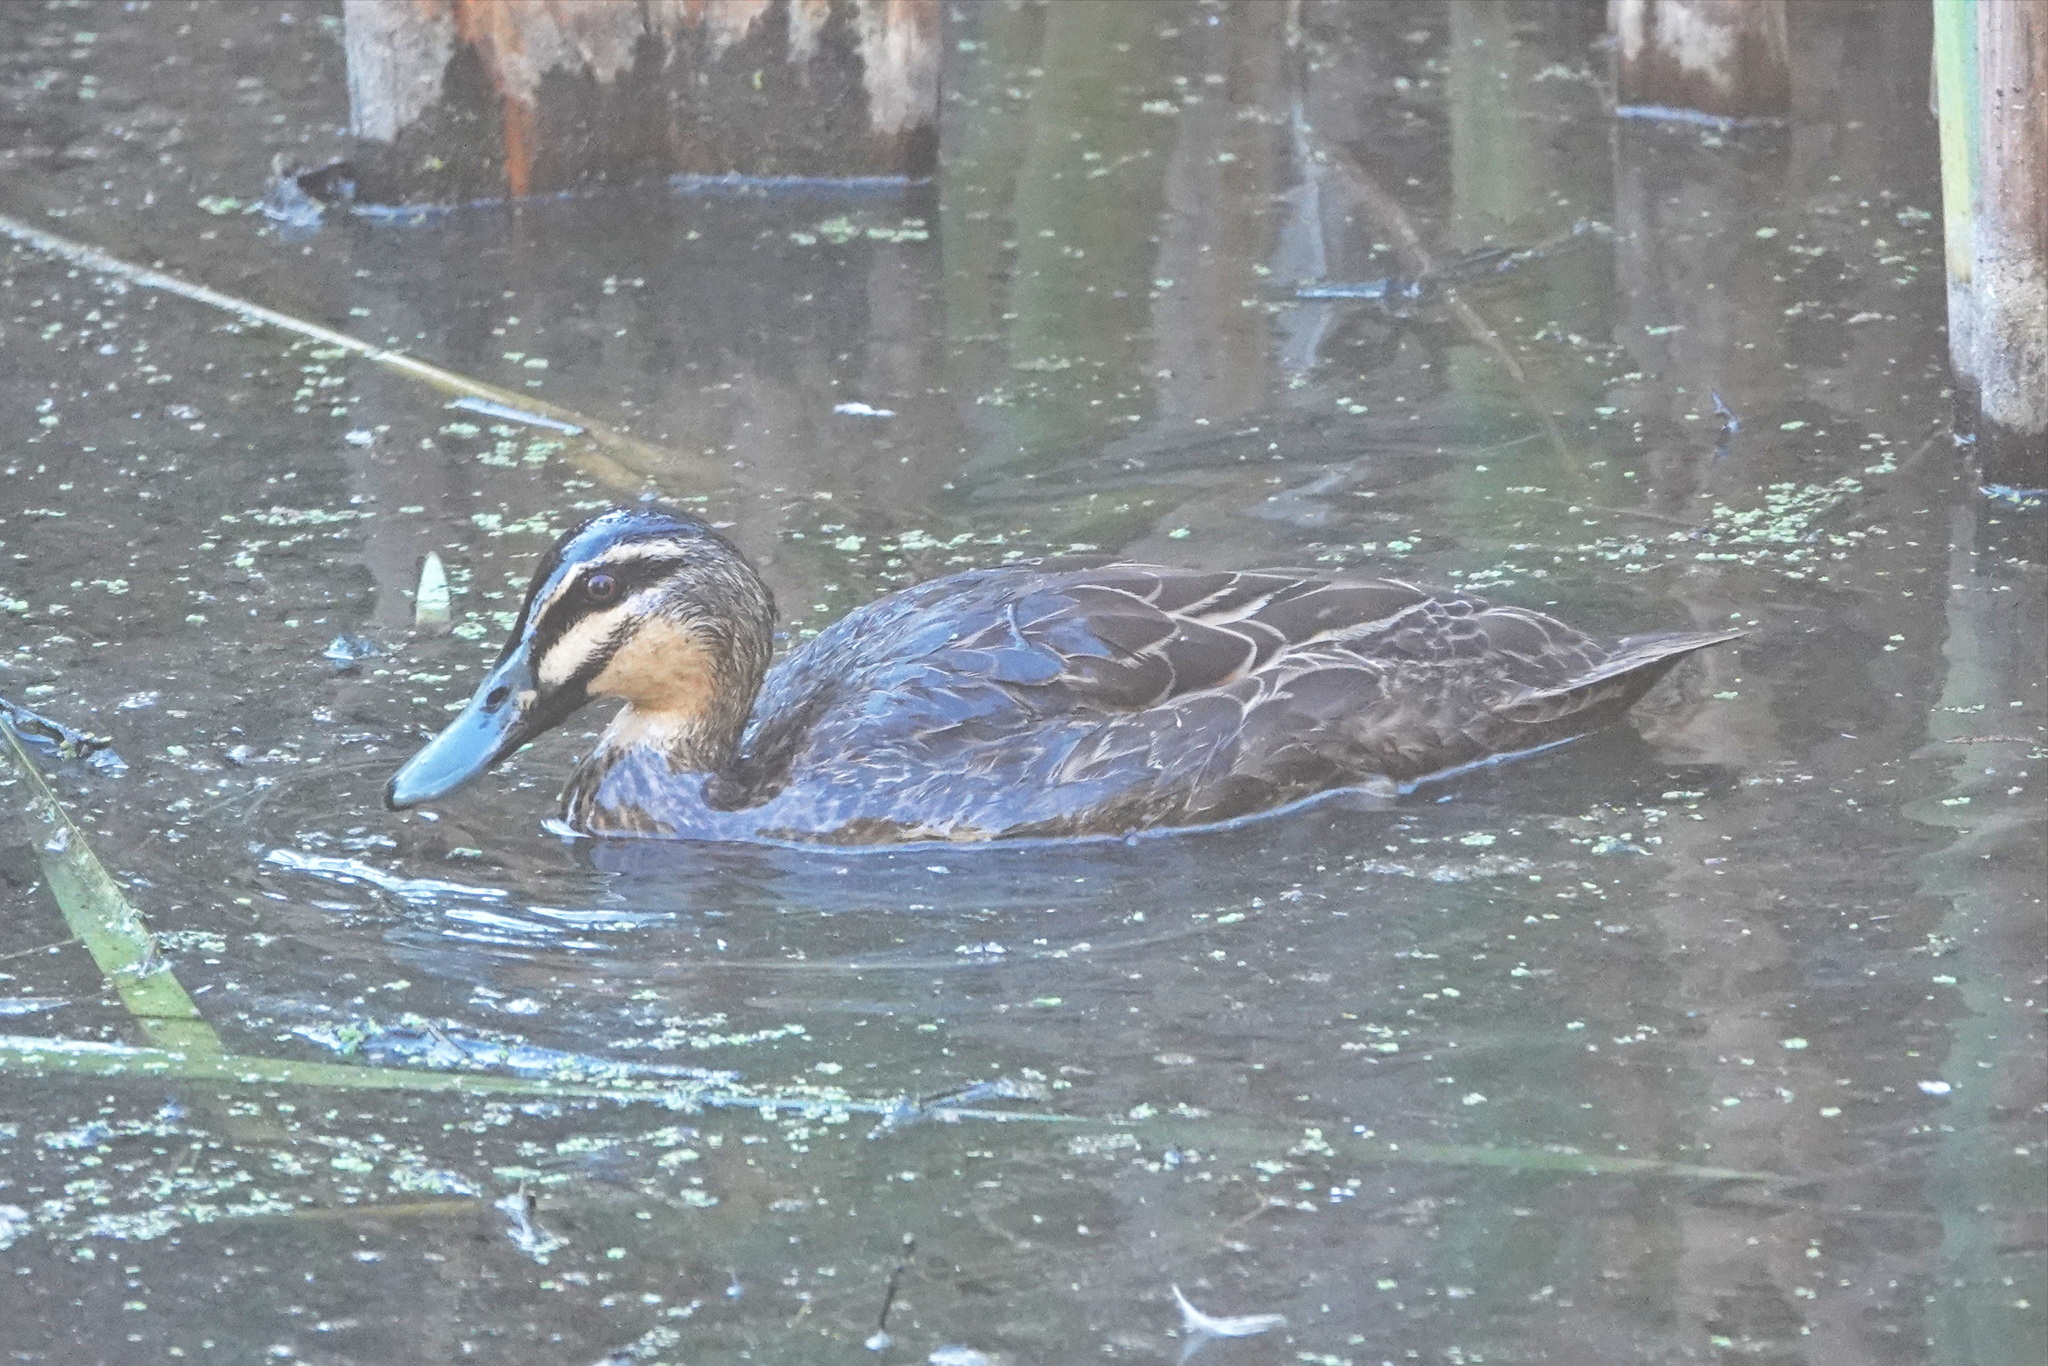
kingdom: Animalia
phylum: Chordata
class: Aves
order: Anseriformes
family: Anatidae
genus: Anas
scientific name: Anas superciliosa
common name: Pacific black duck
